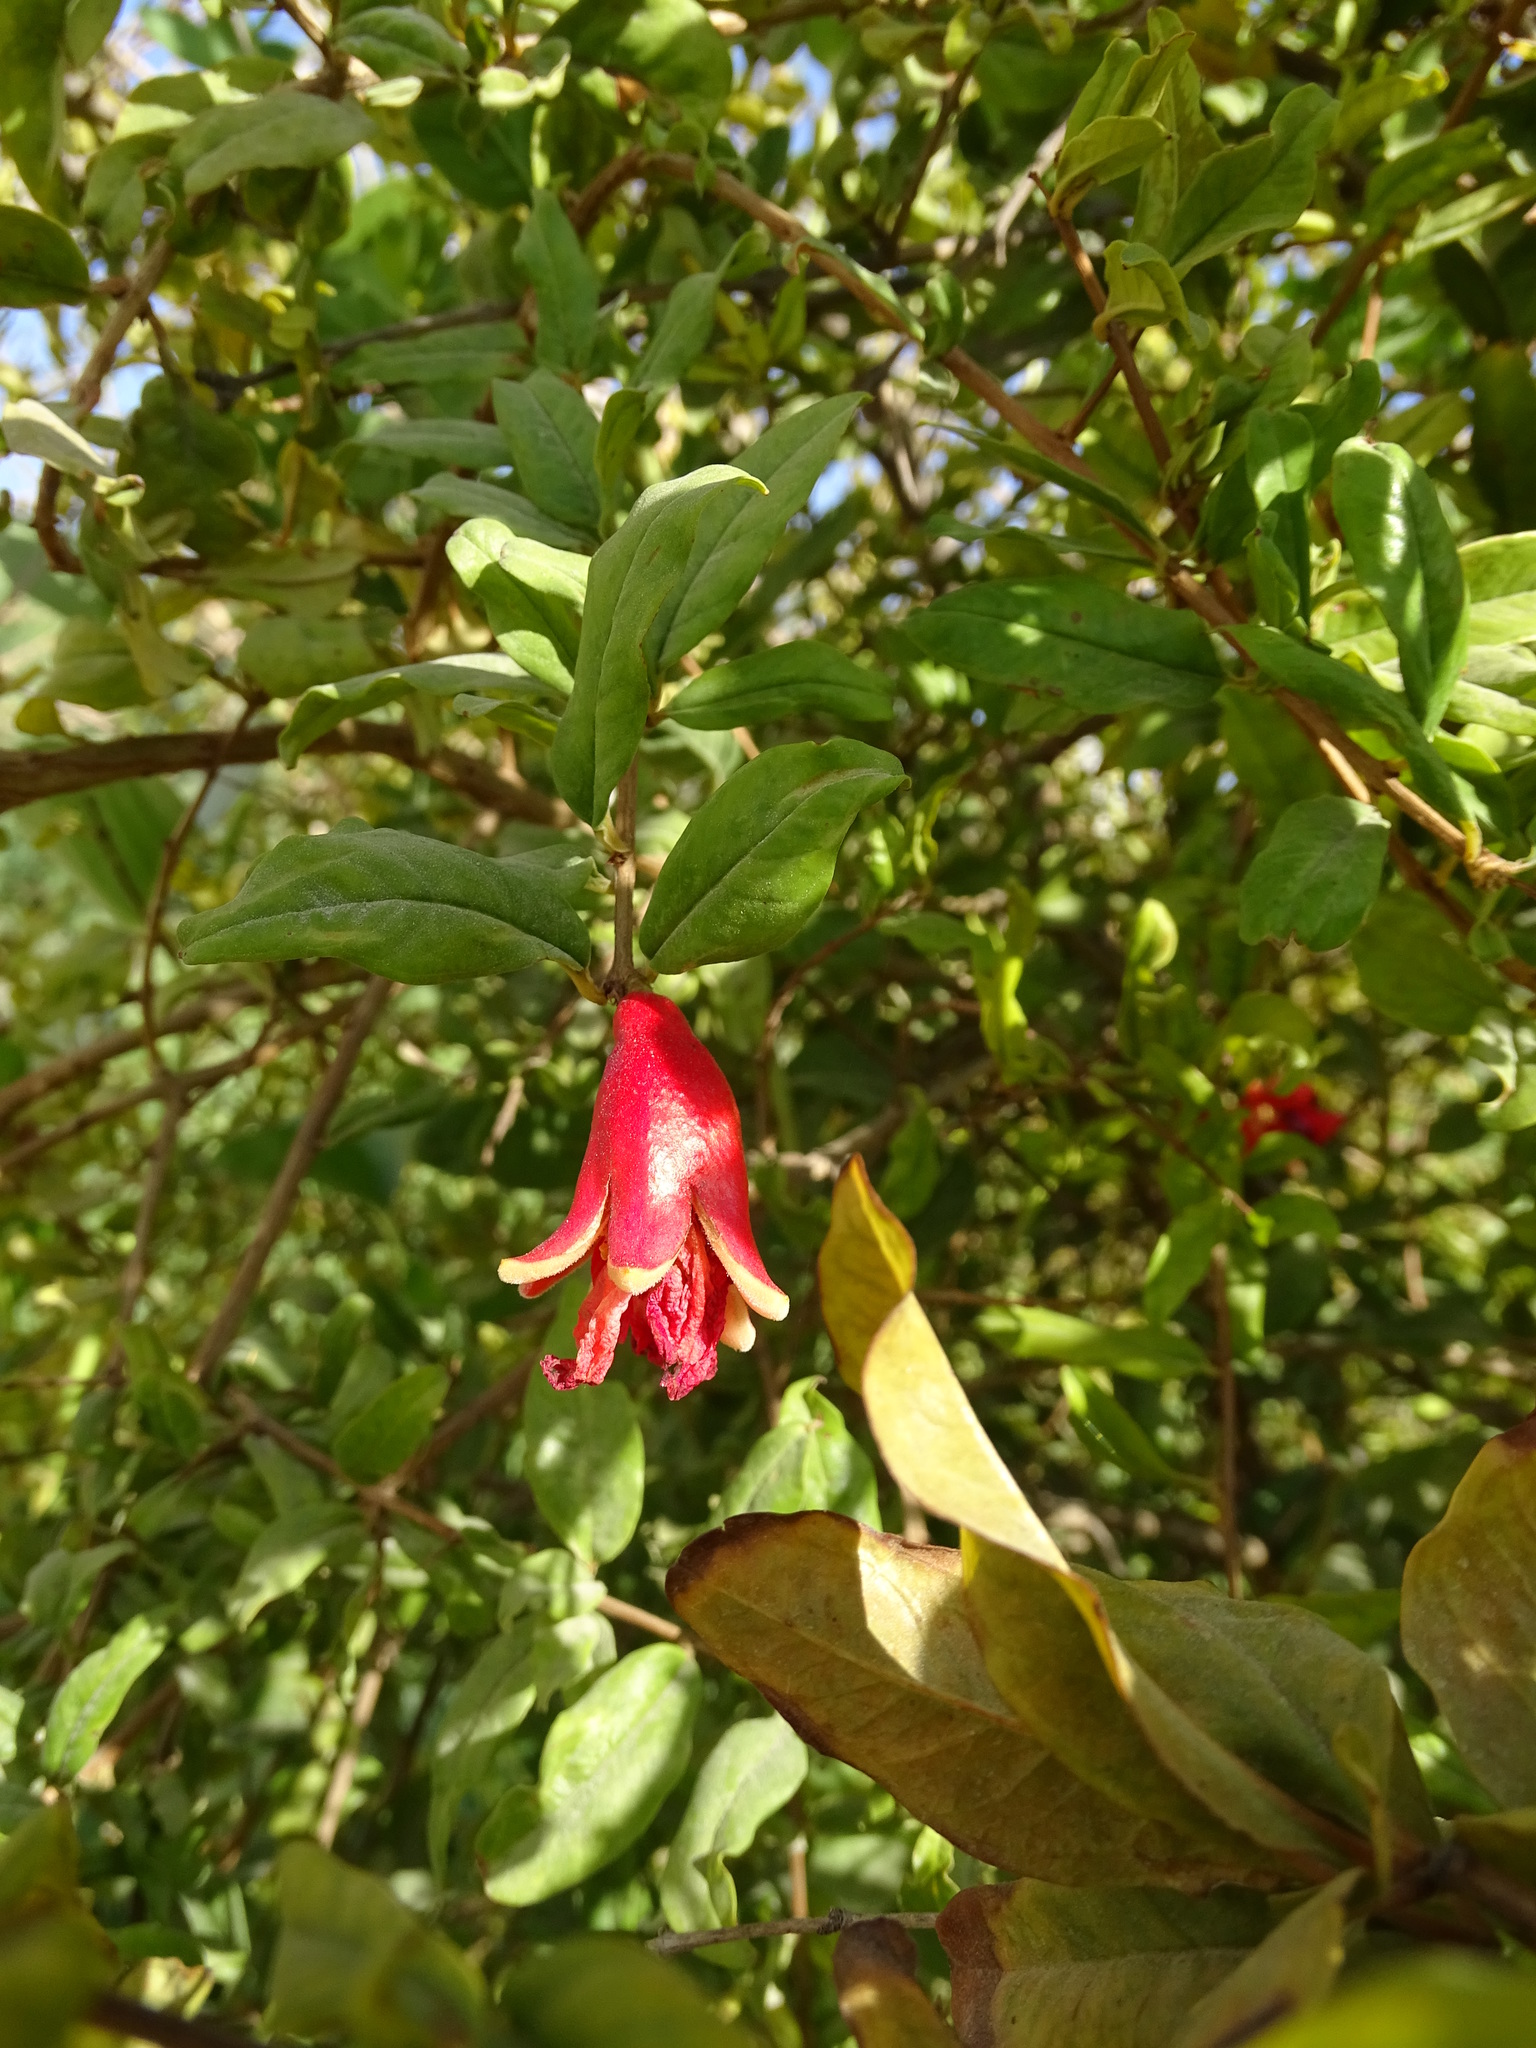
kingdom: Plantae
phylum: Tracheophyta
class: Magnoliopsida
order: Myrtales
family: Lythraceae
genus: Punica
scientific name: Punica granatum
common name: Pomegranate
